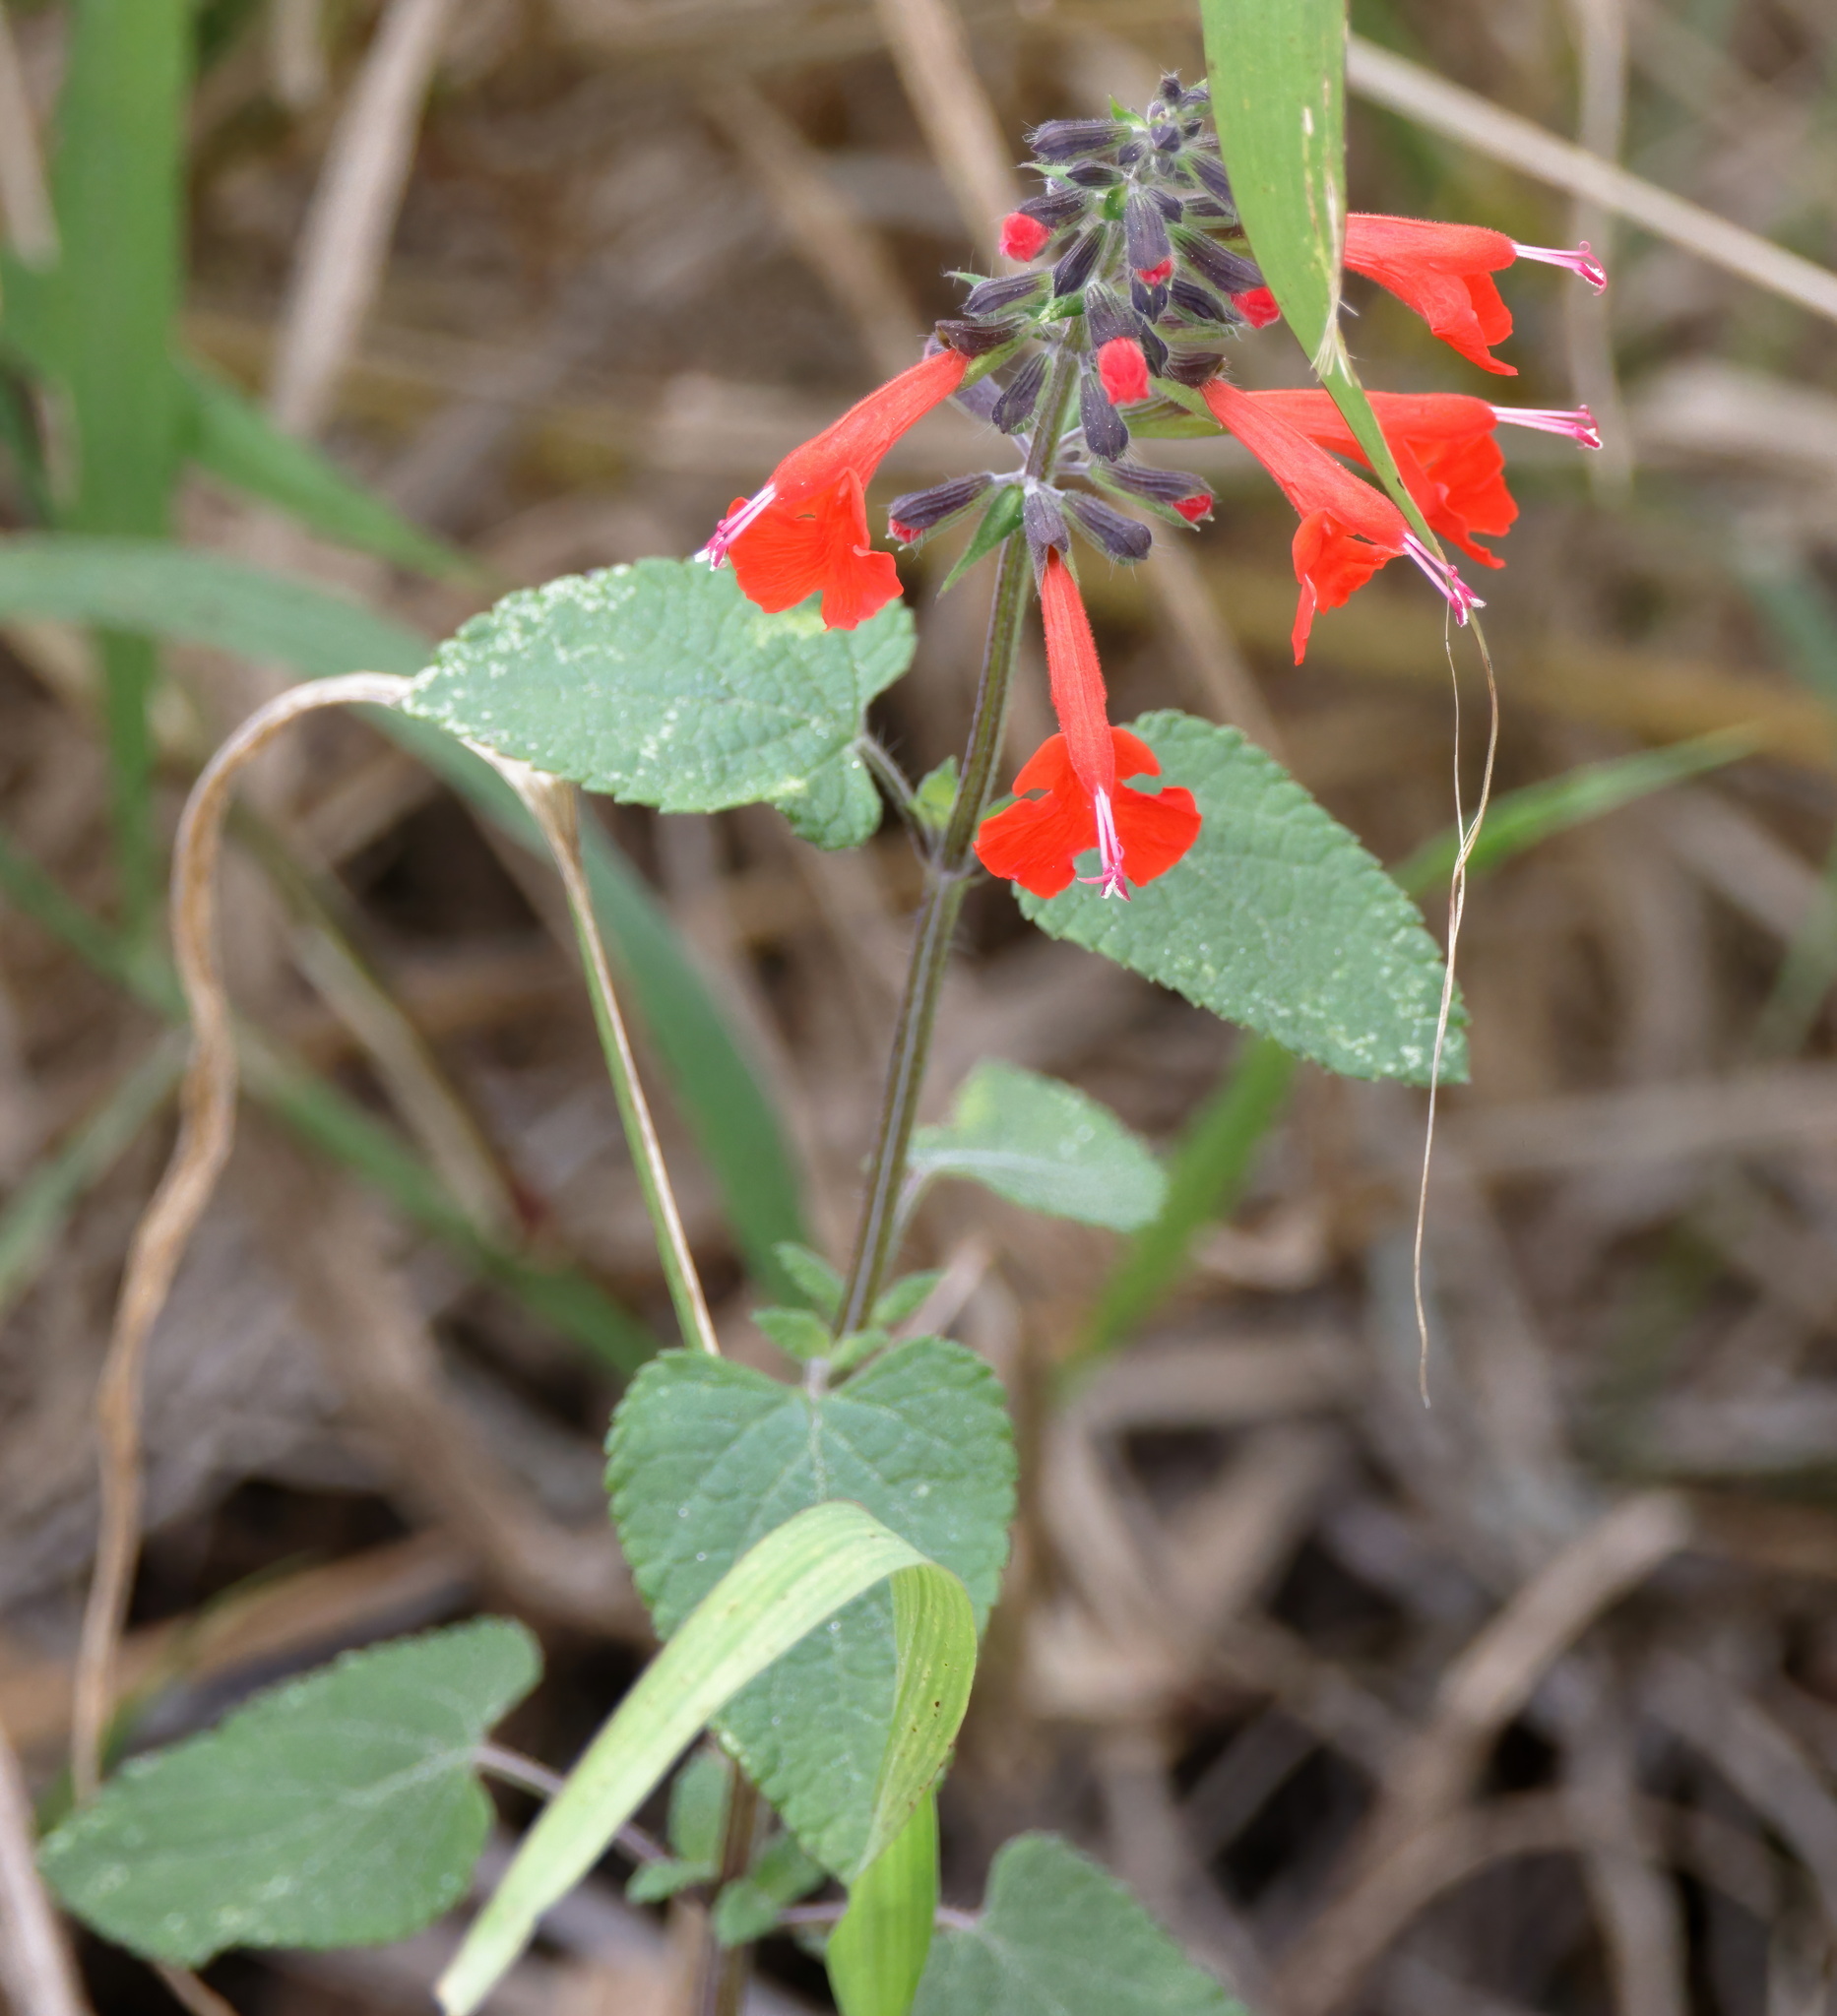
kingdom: Plantae
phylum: Tracheophyta
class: Magnoliopsida
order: Lamiales
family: Lamiaceae
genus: Salvia
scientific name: Salvia coccinea
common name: Blood sage
